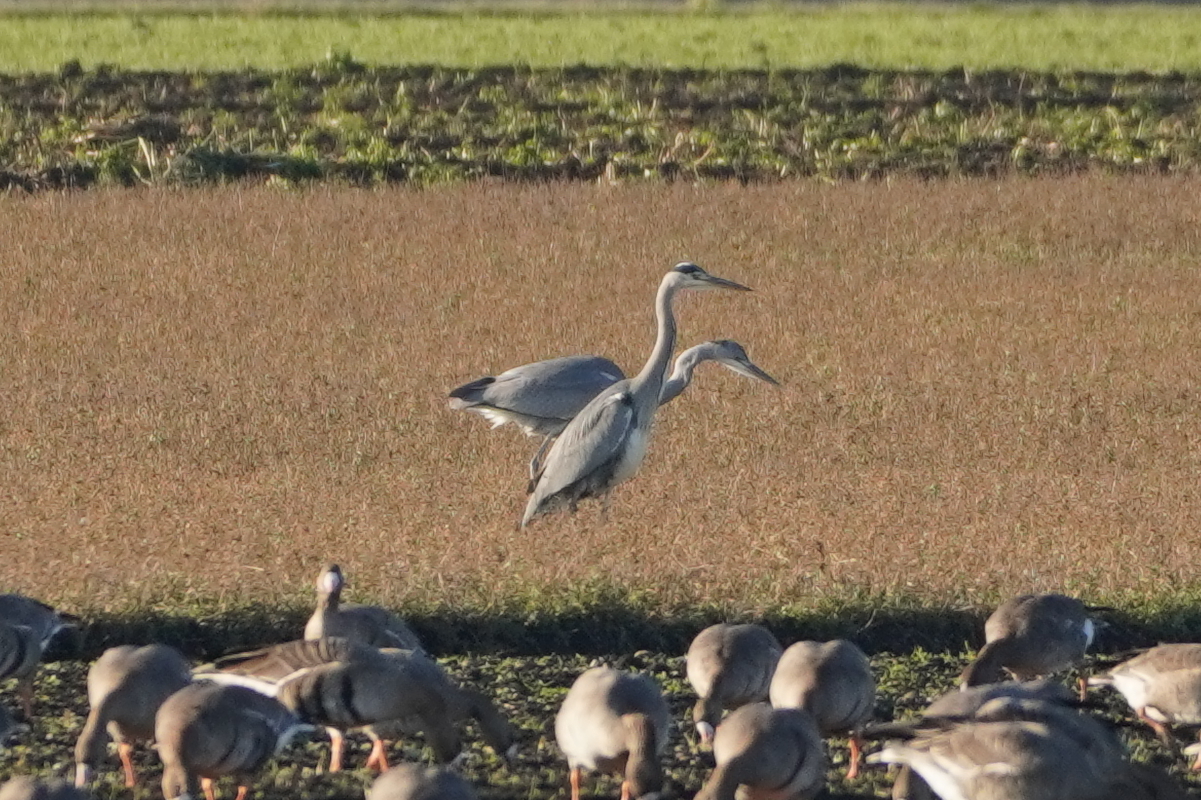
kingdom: Animalia
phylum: Chordata
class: Aves
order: Pelecaniformes
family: Ardeidae
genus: Ardea
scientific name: Ardea cinerea
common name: Grey heron
